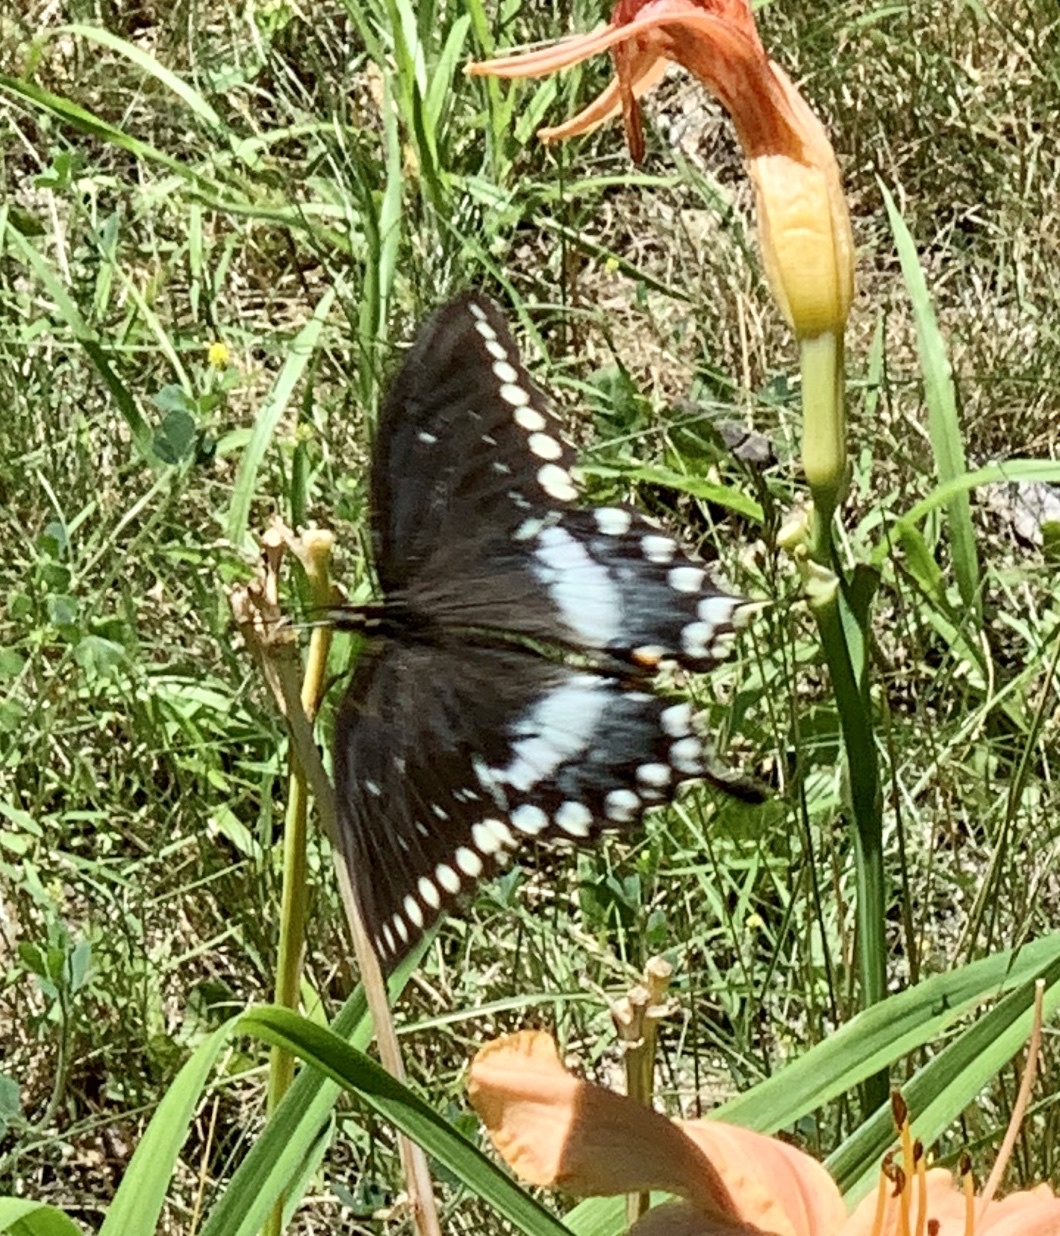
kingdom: Animalia
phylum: Arthropoda
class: Insecta
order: Lepidoptera
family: Papilionidae
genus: Papilio
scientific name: Papilio troilus
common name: Spicebush swallowtail
